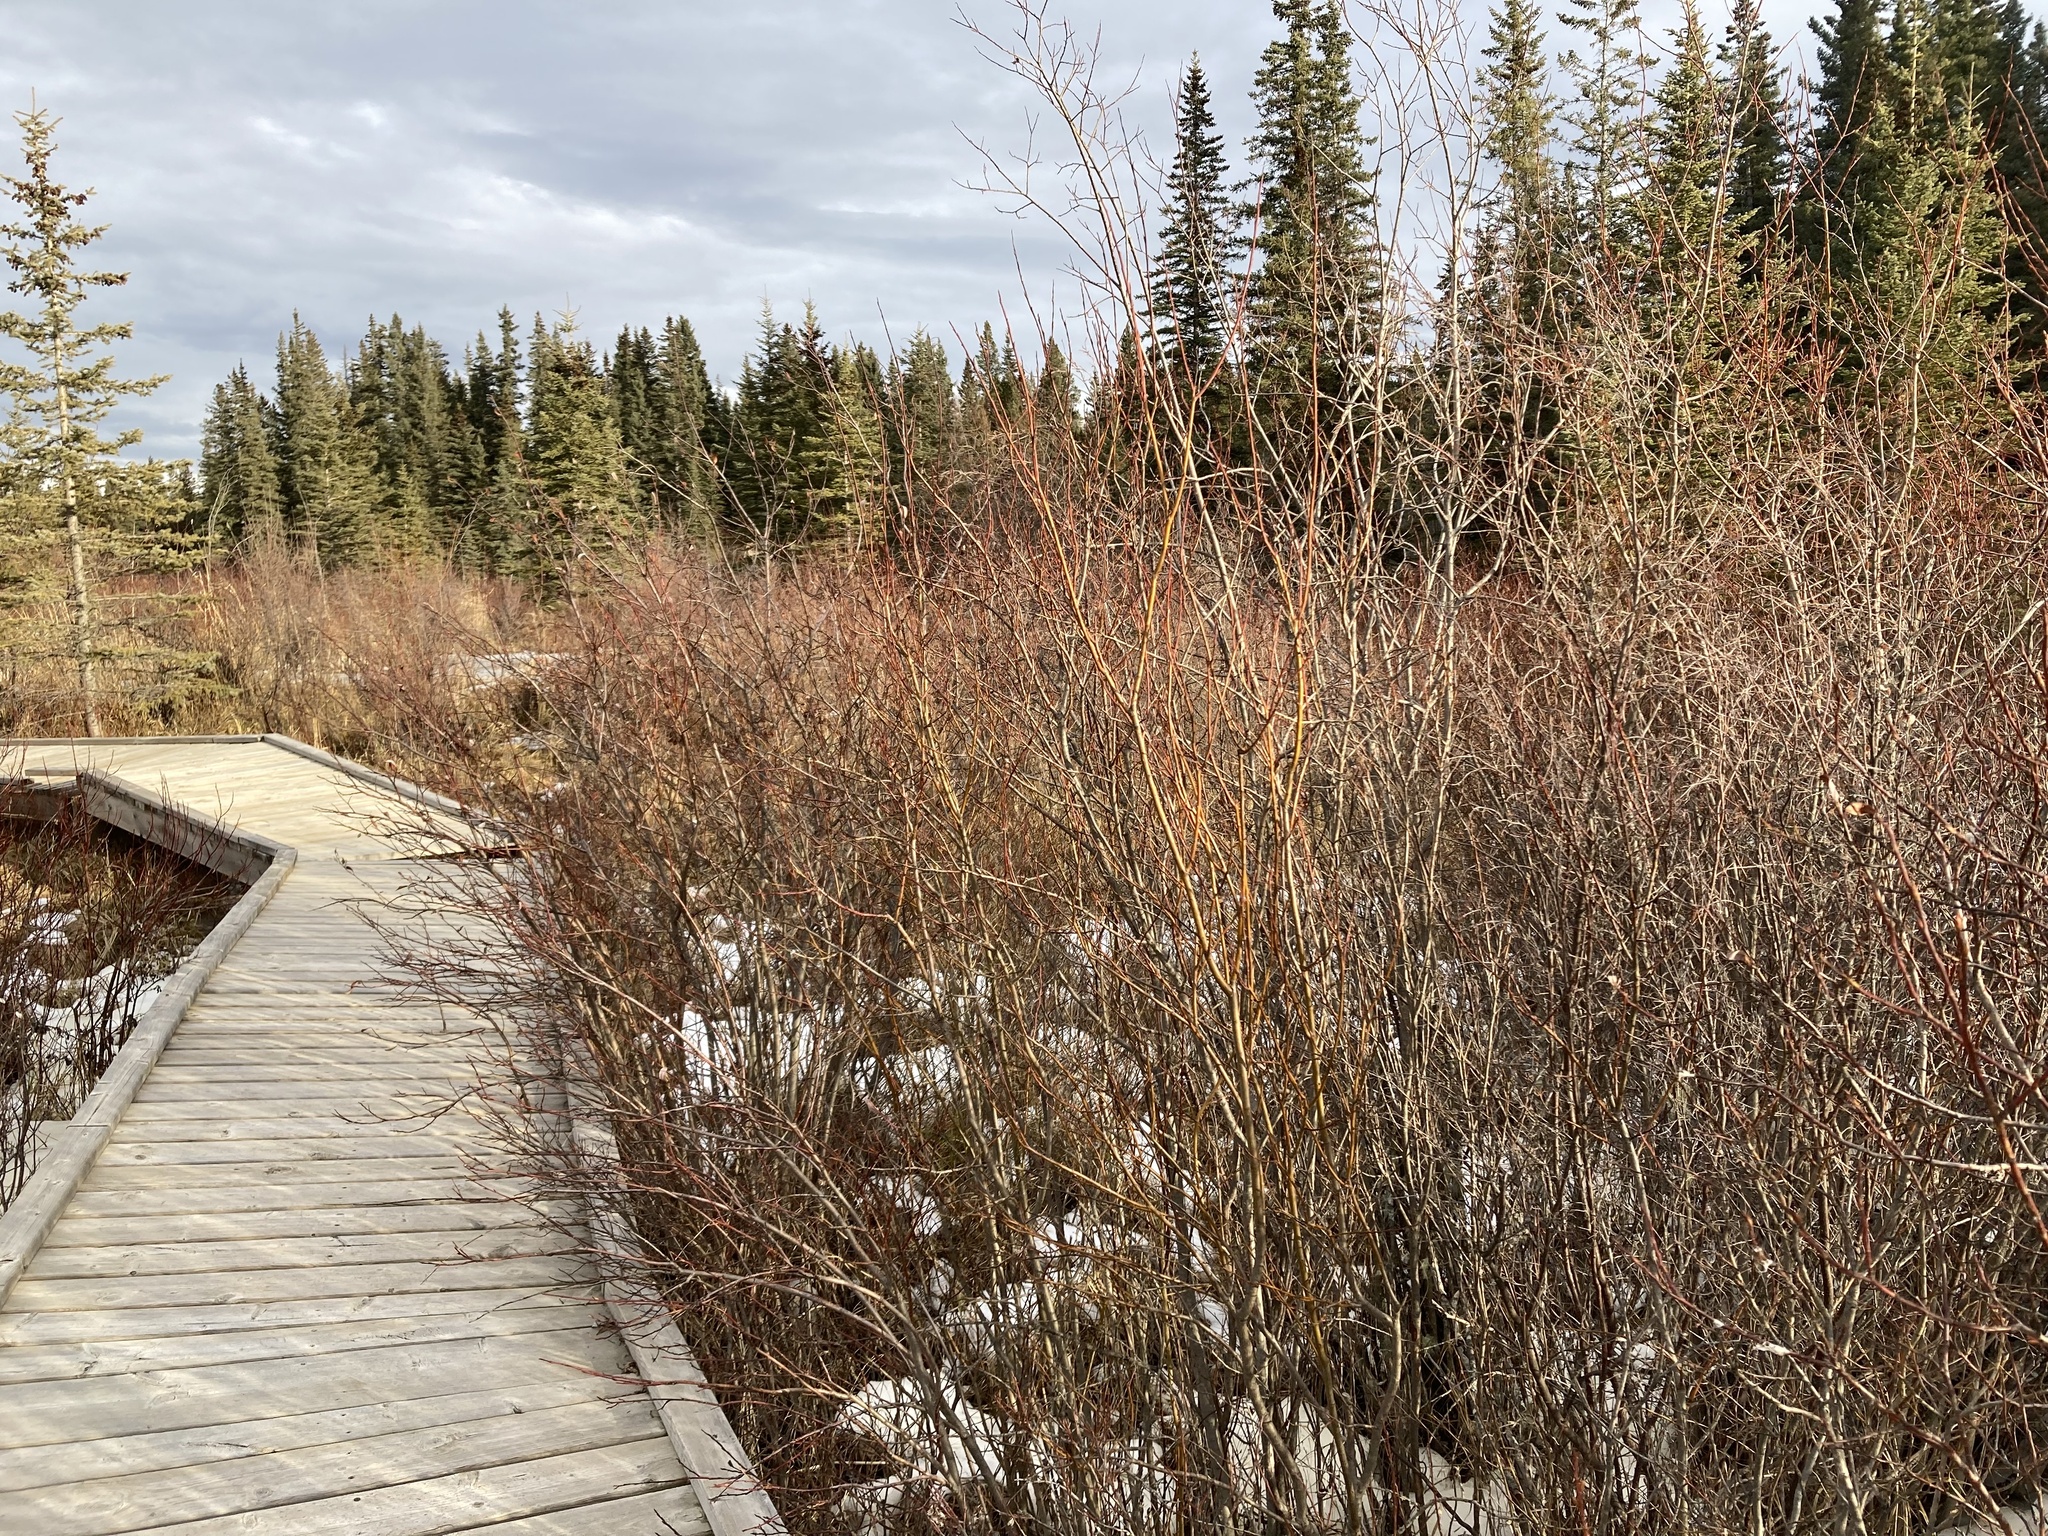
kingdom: Plantae
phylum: Tracheophyta
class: Magnoliopsida
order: Malpighiales
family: Salicaceae
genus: Salix
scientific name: Salix drummondiana
